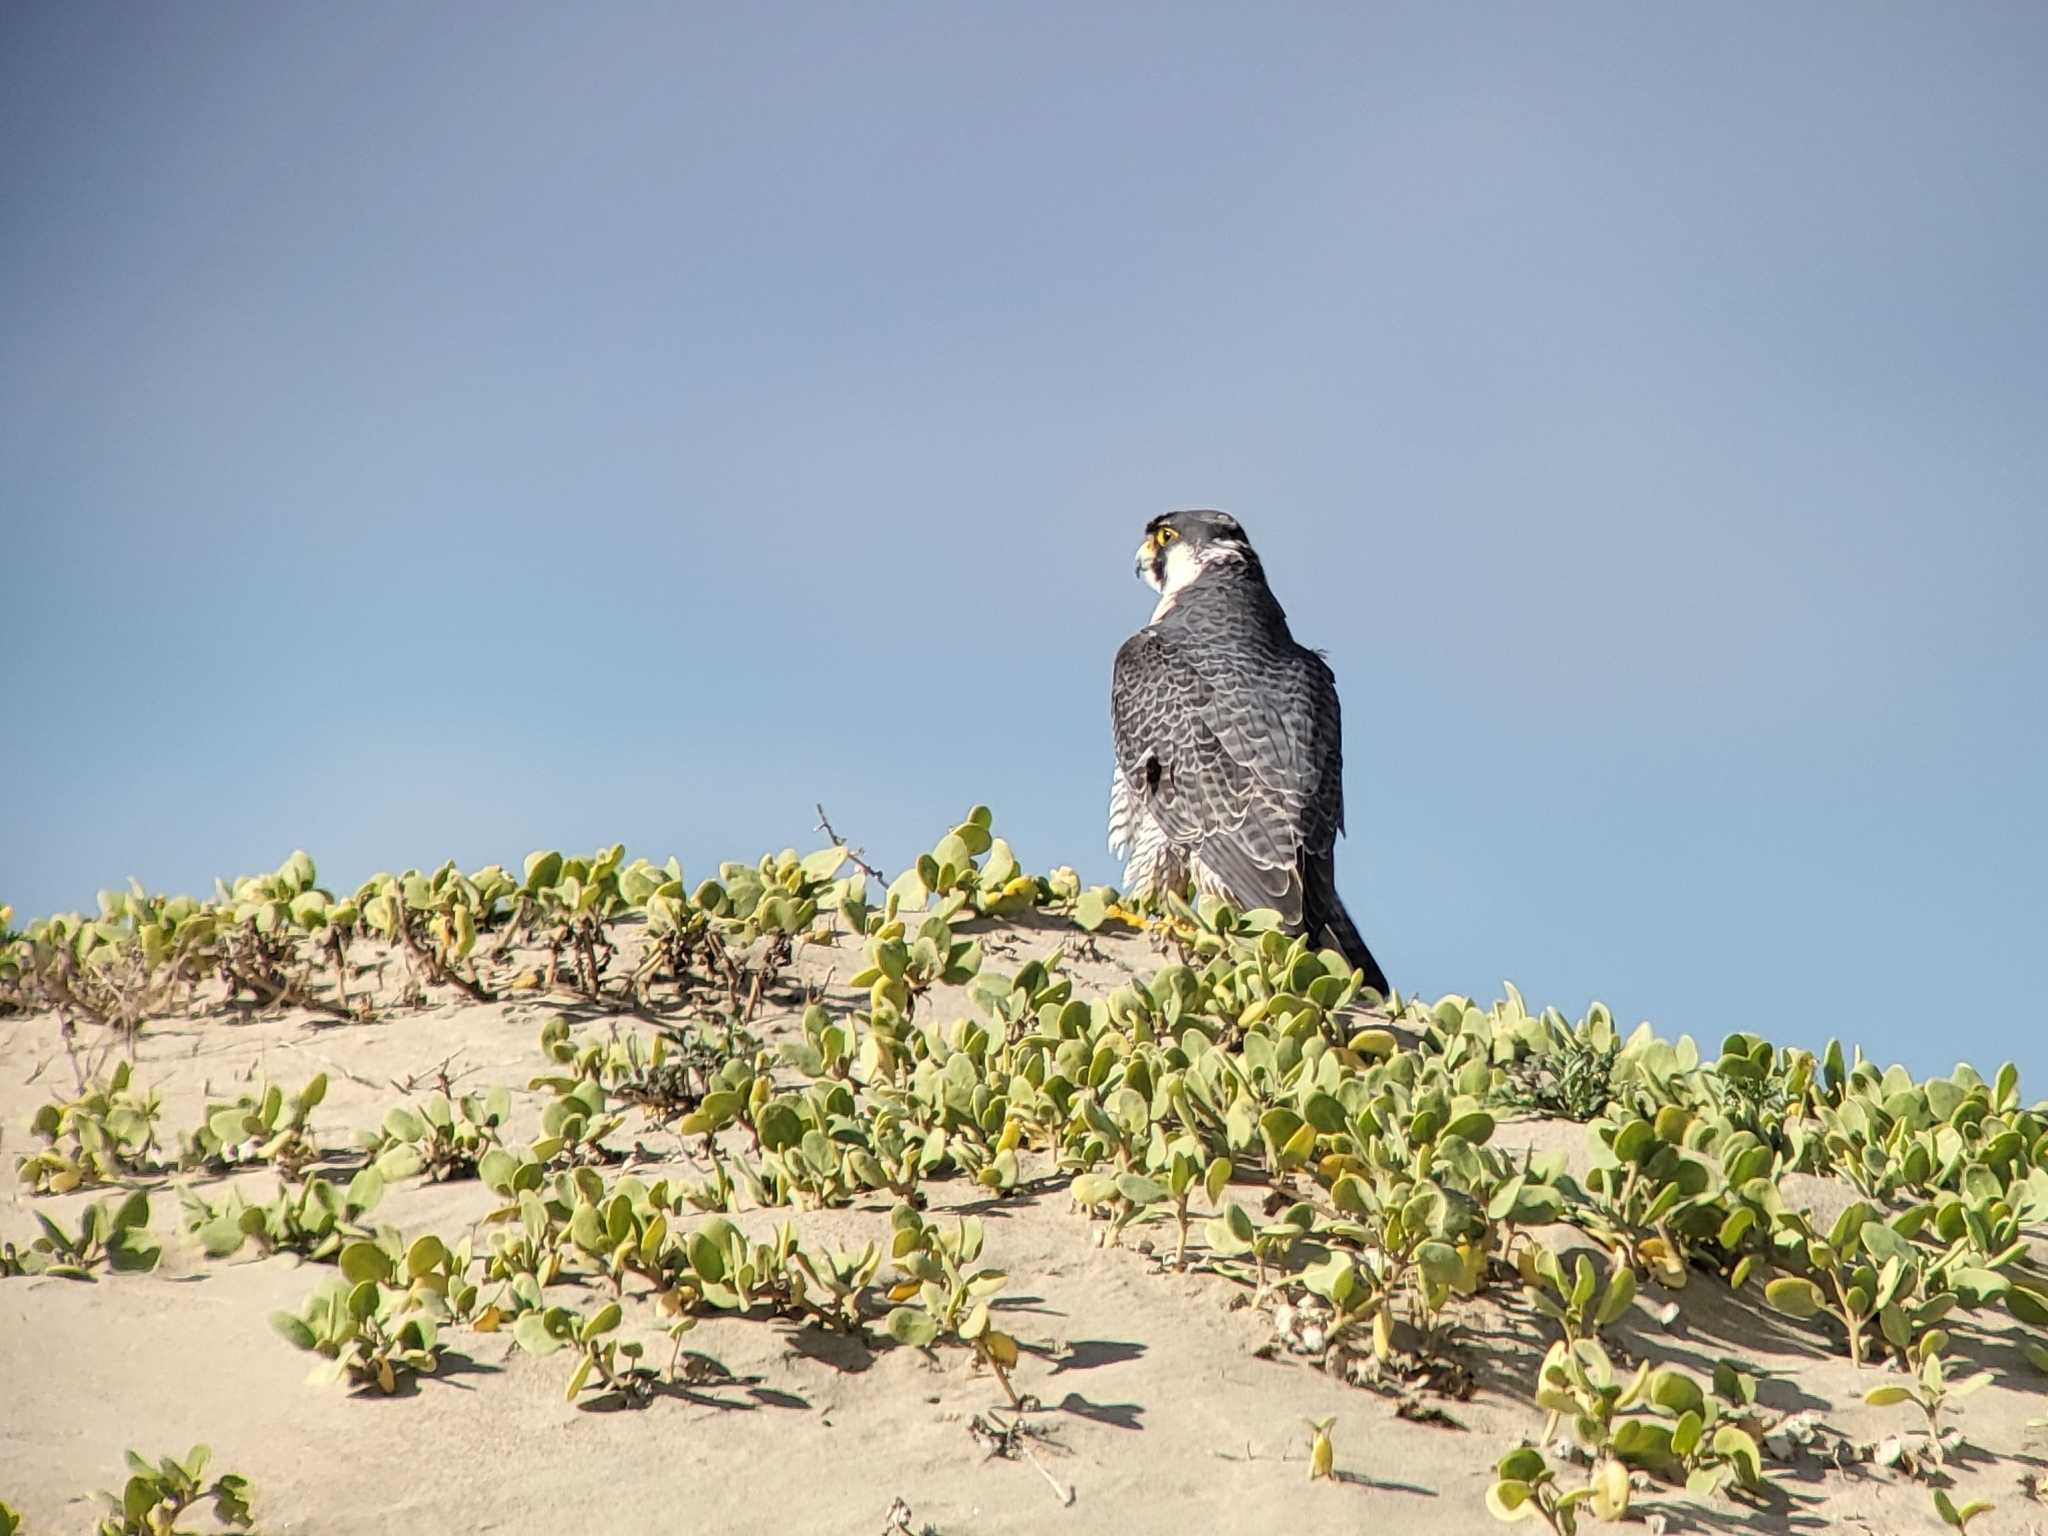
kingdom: Animalia
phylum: Chordata
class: Aves
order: Falconiformes
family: Falconidae
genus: Falco
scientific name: Falco peregrinus
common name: Peregrine falcon
